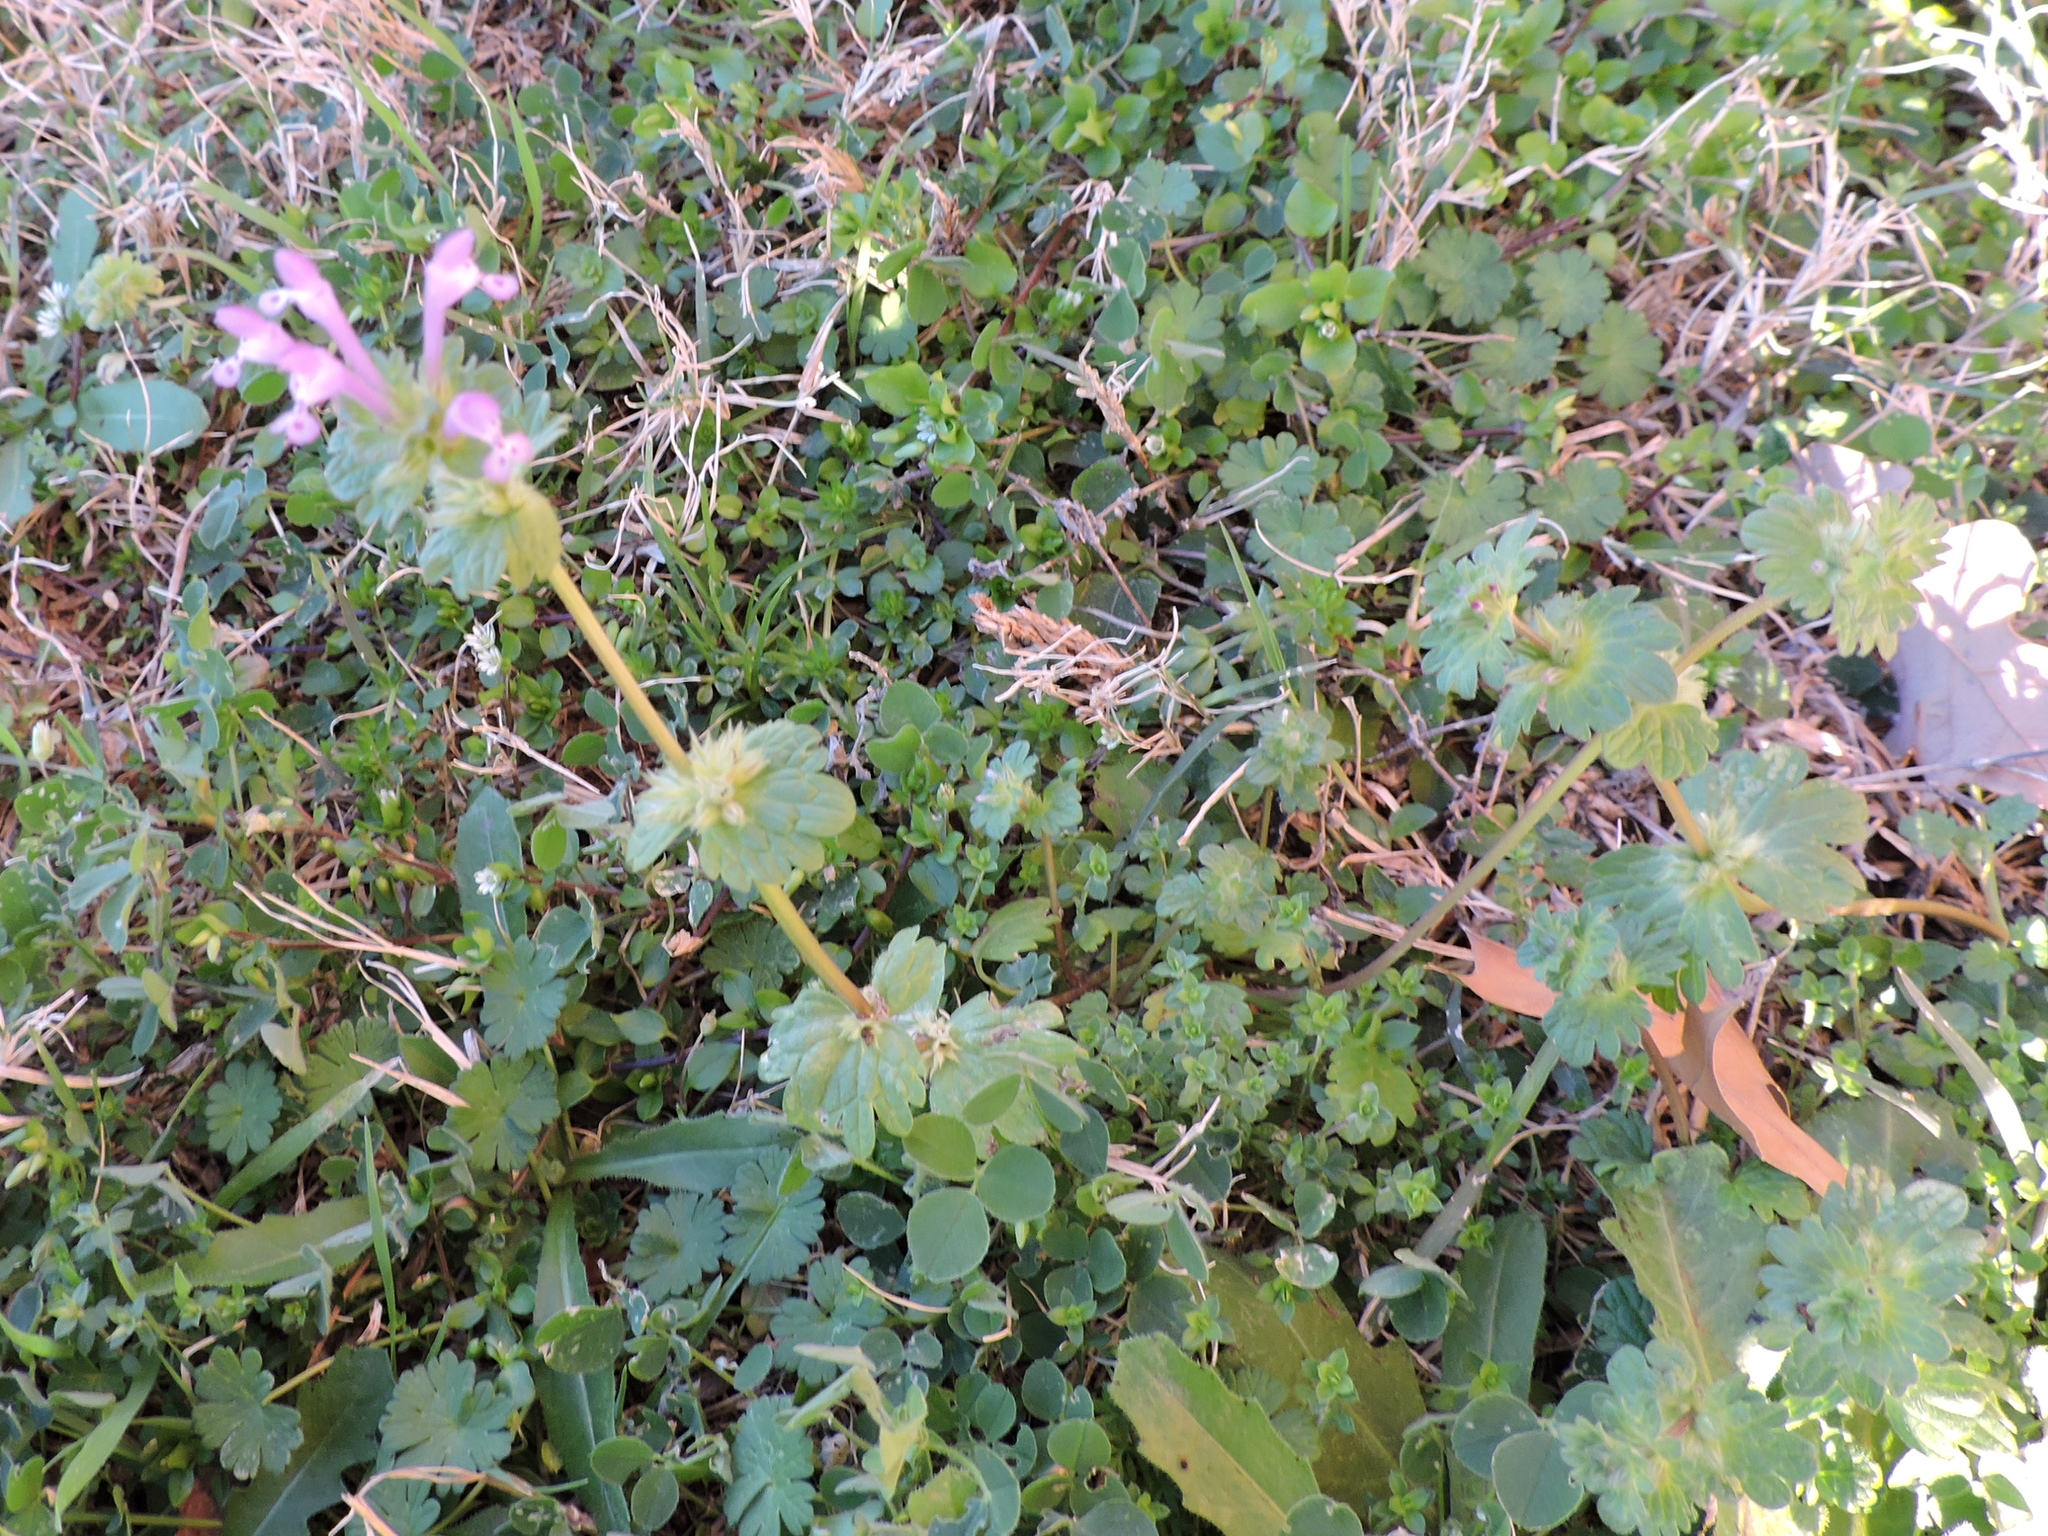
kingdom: Plantae
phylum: Tracheophyta
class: Magnoliopsida
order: Lamiales
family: Lamiaceae
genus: Lamium
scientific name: Lamium amplexicaule
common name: Henbit dead-nettle
